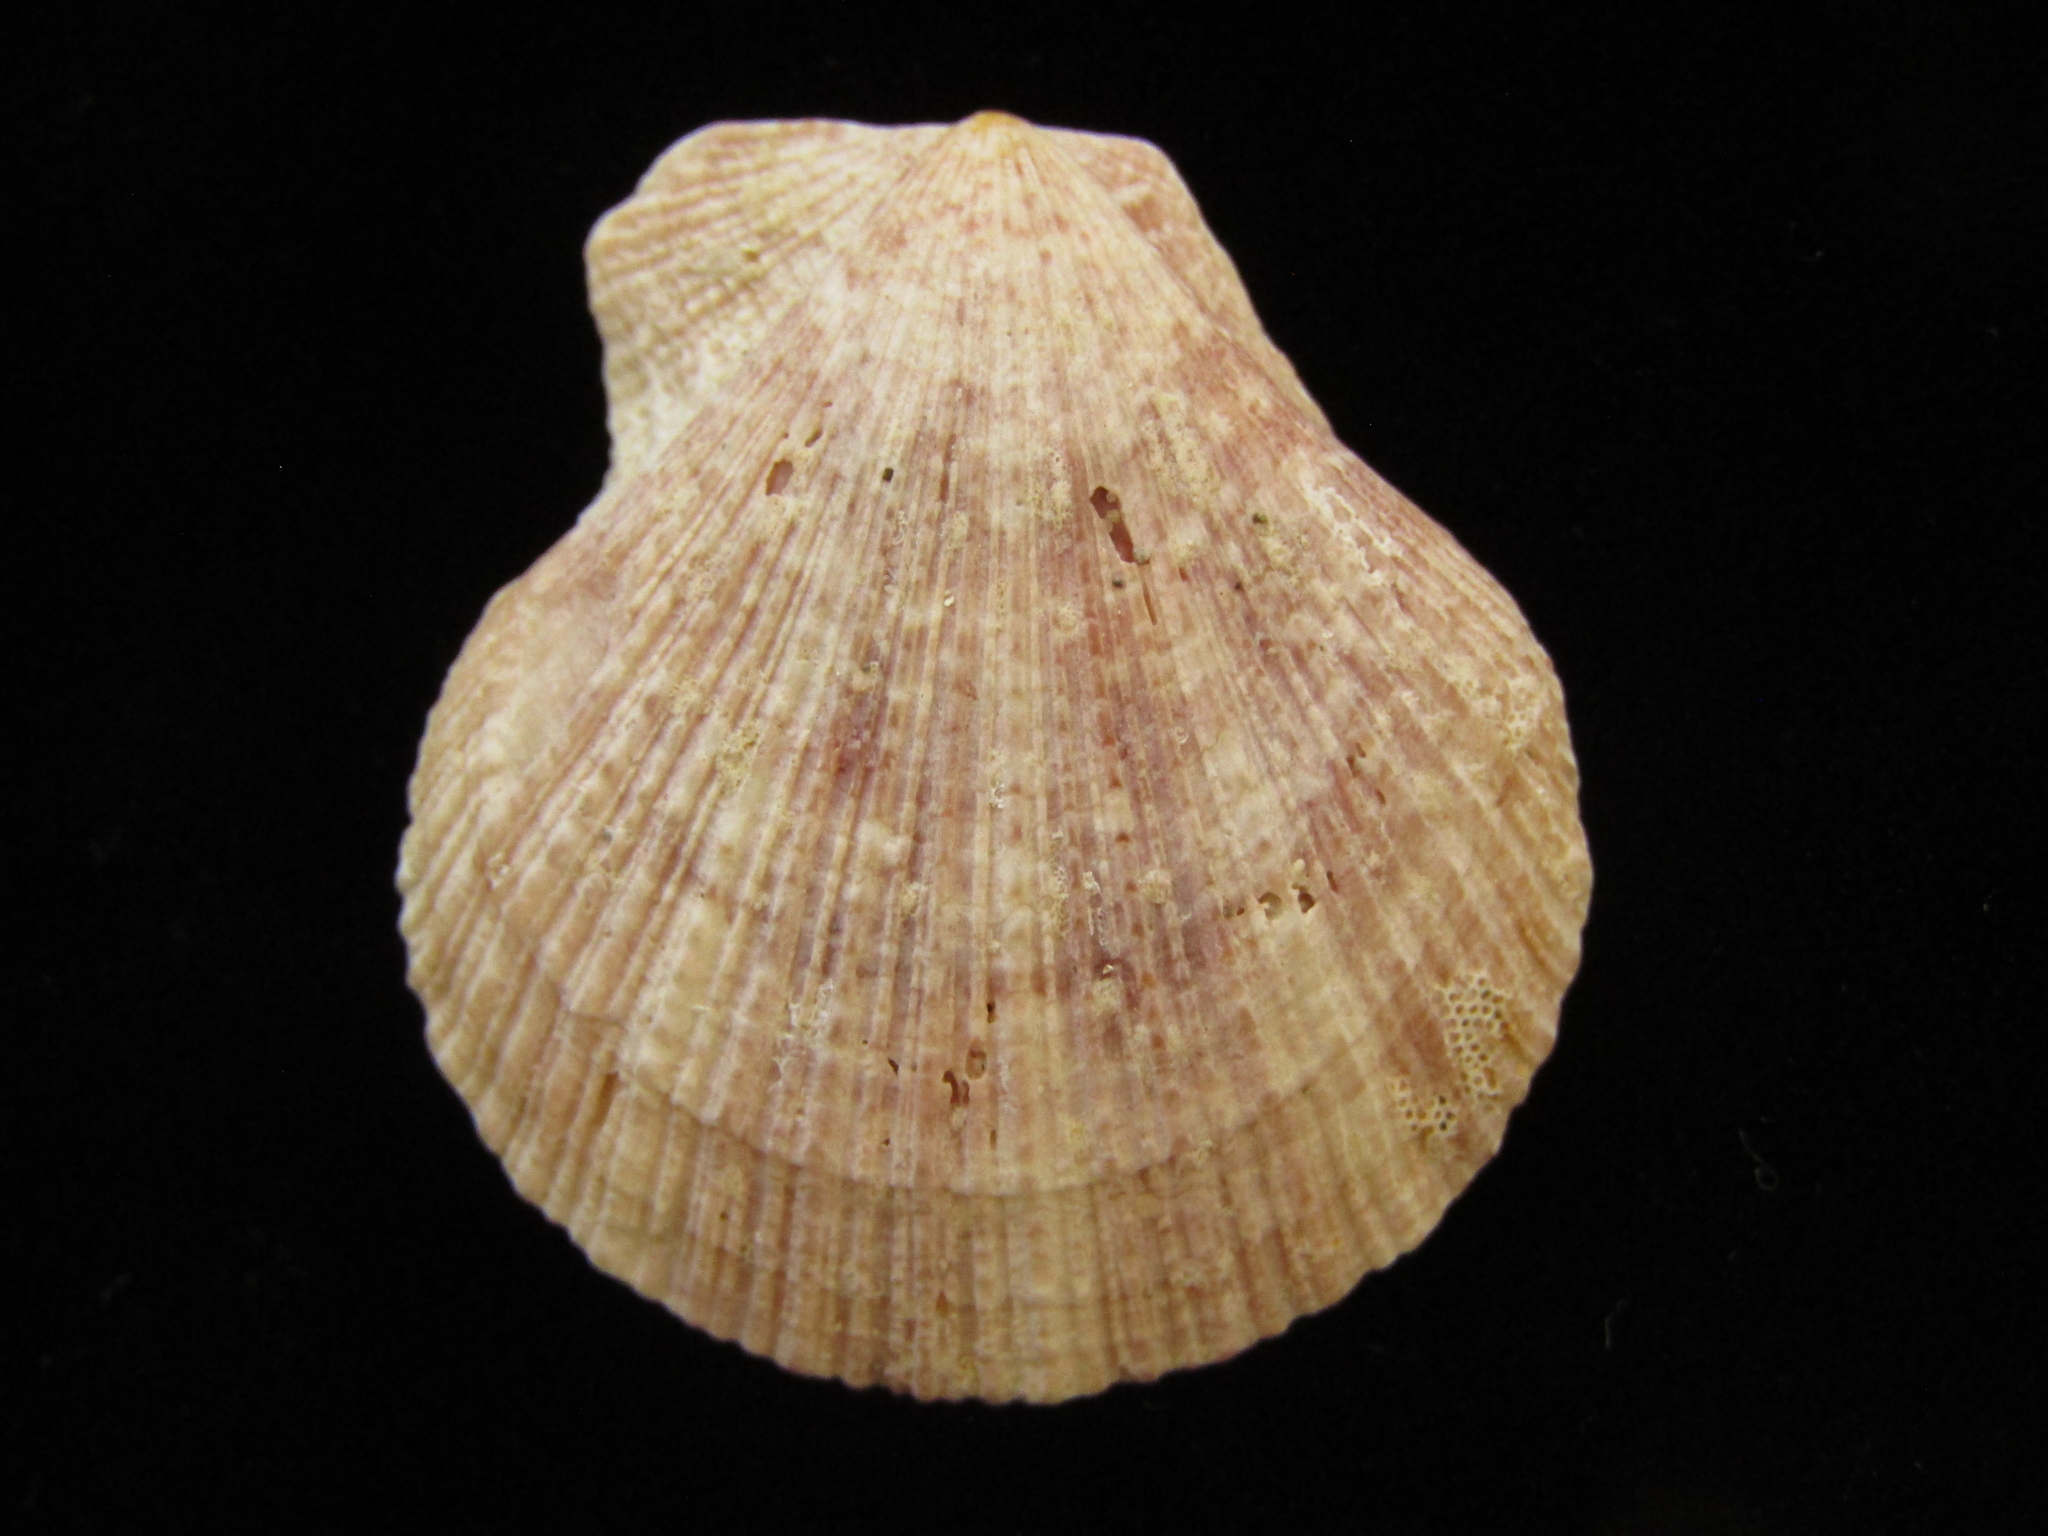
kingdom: Animalia
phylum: Mollusca
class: Bivalvia
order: Pectinida
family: Pectinidae
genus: Talochlamys
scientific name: Talochlamys zelandiae
